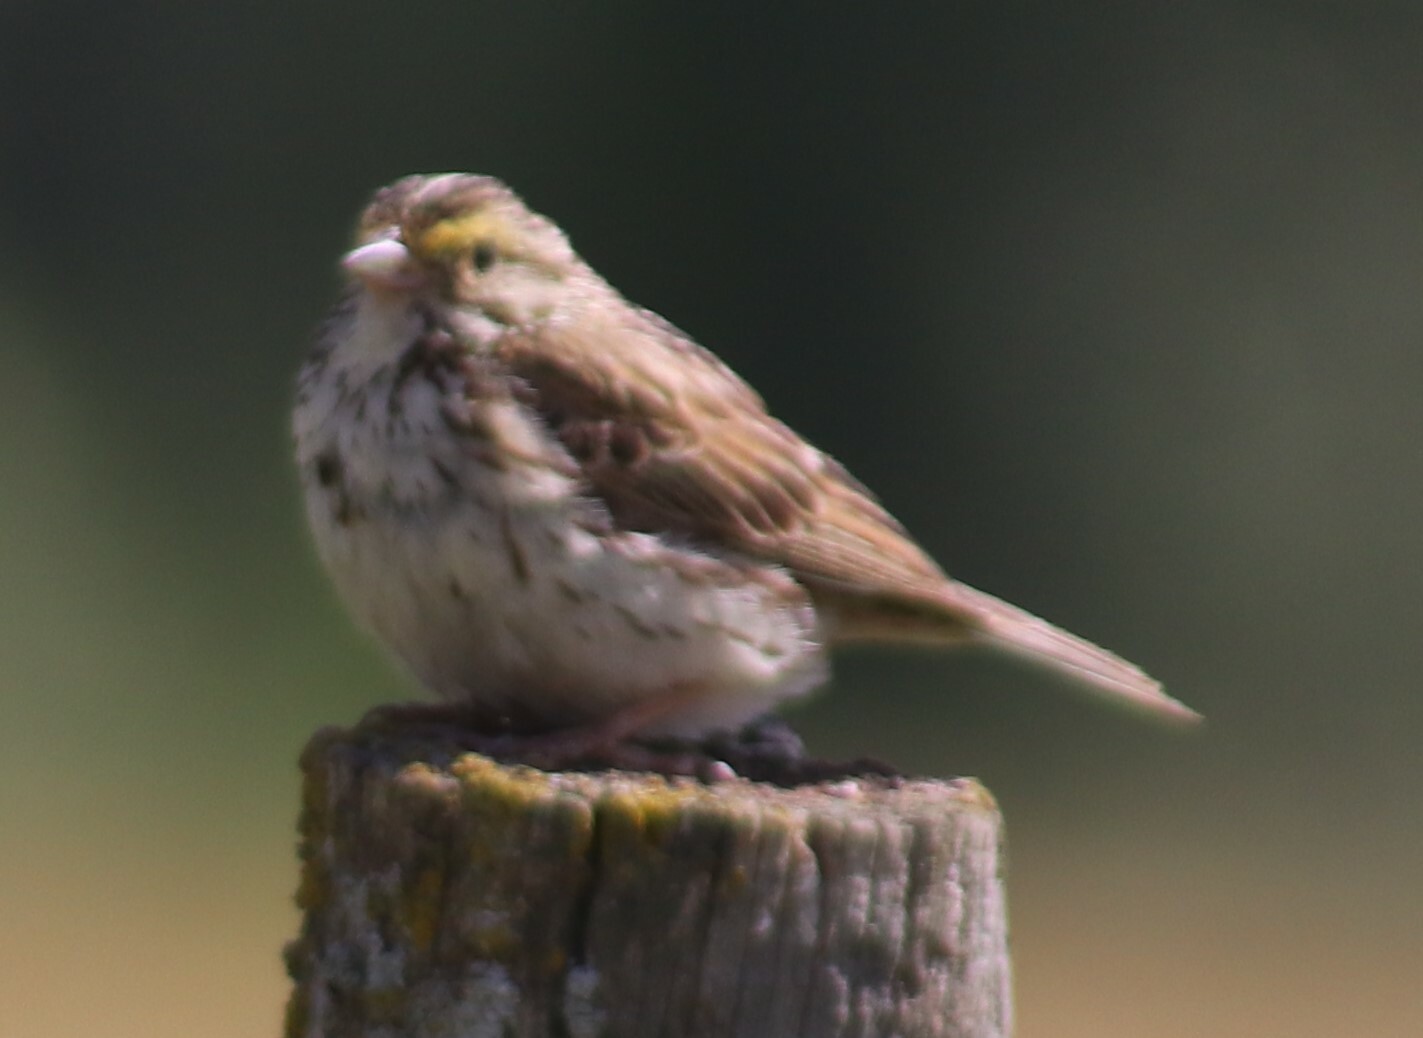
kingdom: Animalia
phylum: Chordata
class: Aves
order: Passeriformes
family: Passerellidae
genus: Passerculus
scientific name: Passerculus sandwichensis
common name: Savannah sparrow
